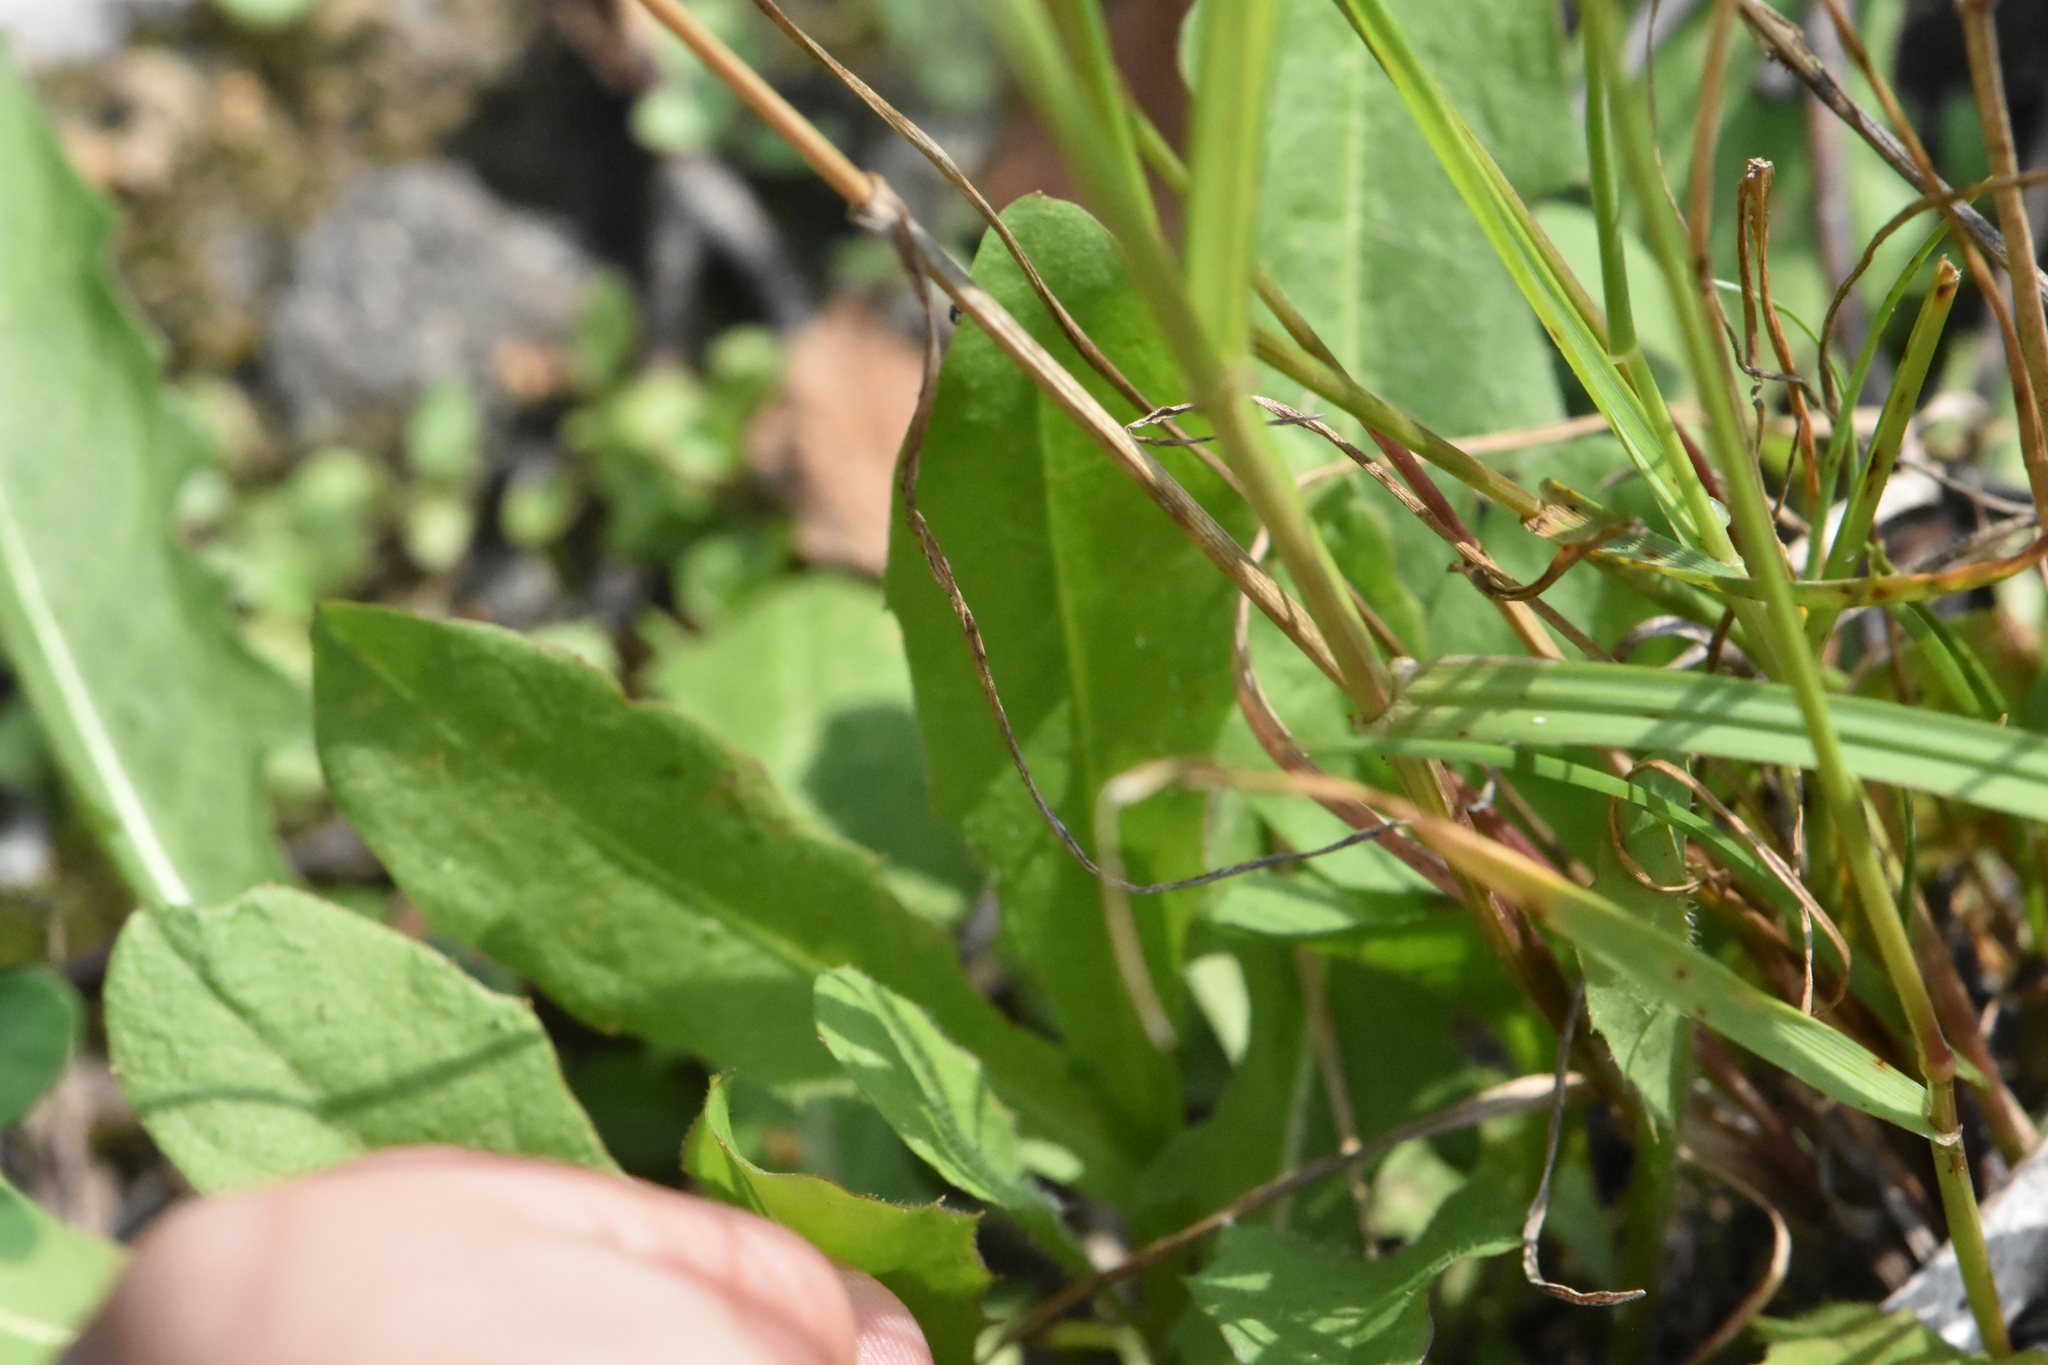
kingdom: Plantae
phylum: Tracheophyta
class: Liliopsida
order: Poales
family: Poaceae
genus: Lolium
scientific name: Lolium perenne
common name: Perennial ryegrass
